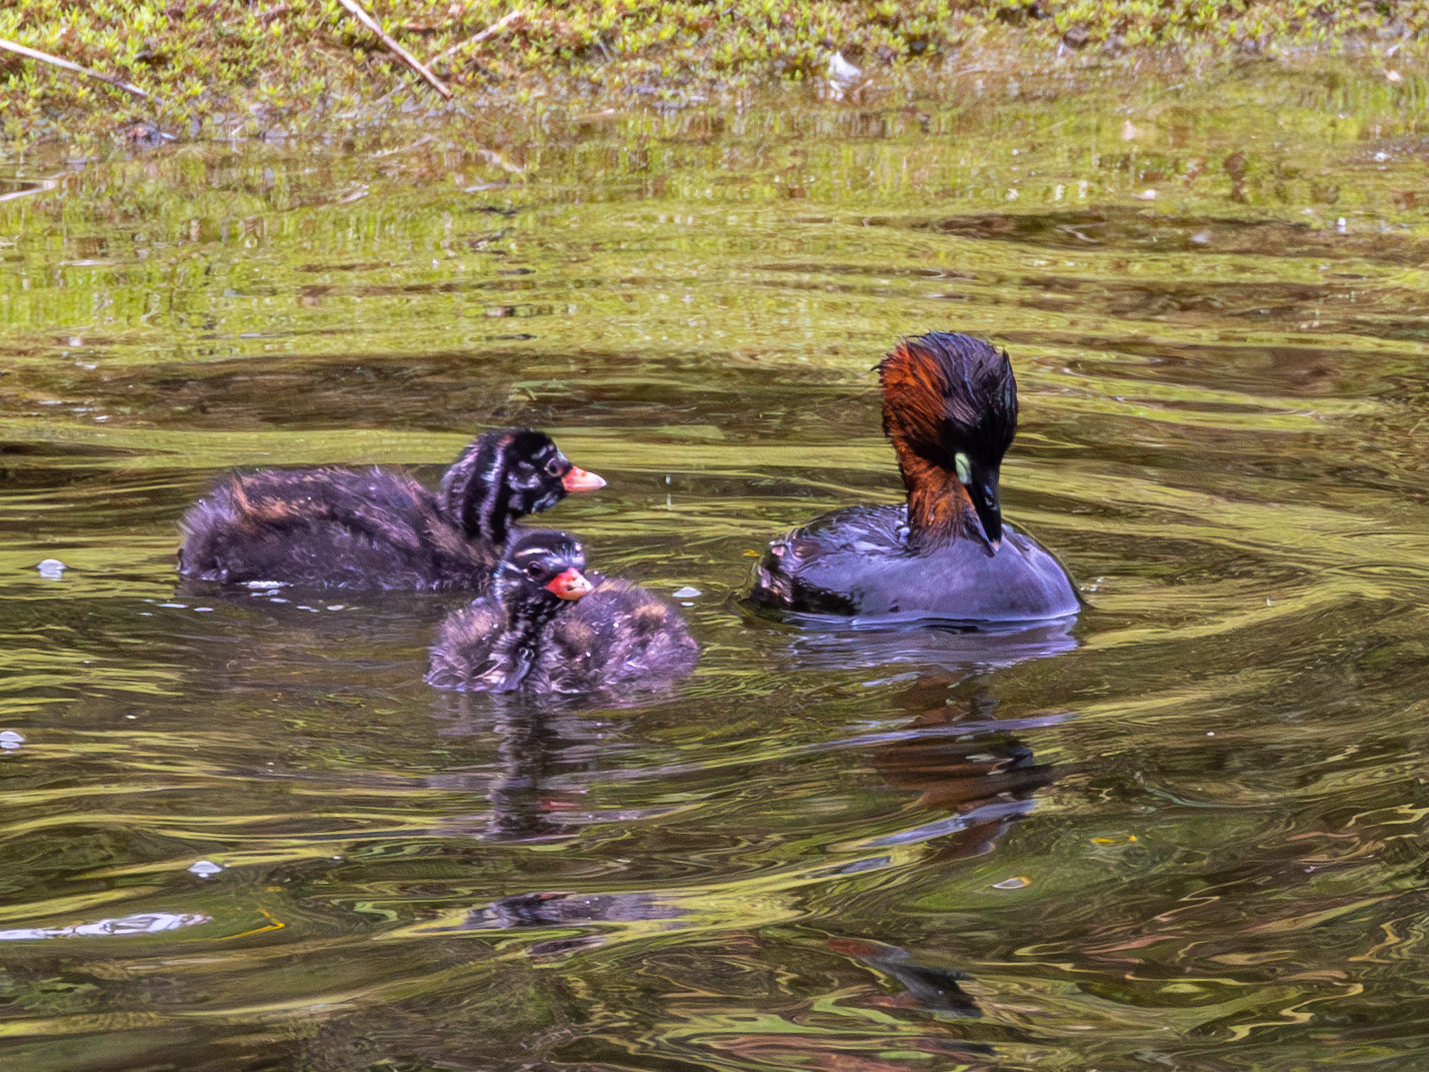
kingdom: Animalia
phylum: Chordata
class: Aves
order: Podicipediformes
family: Podicipedidae
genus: Tachybaptus
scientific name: Tachybaptus ruficollis
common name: Little grebe
